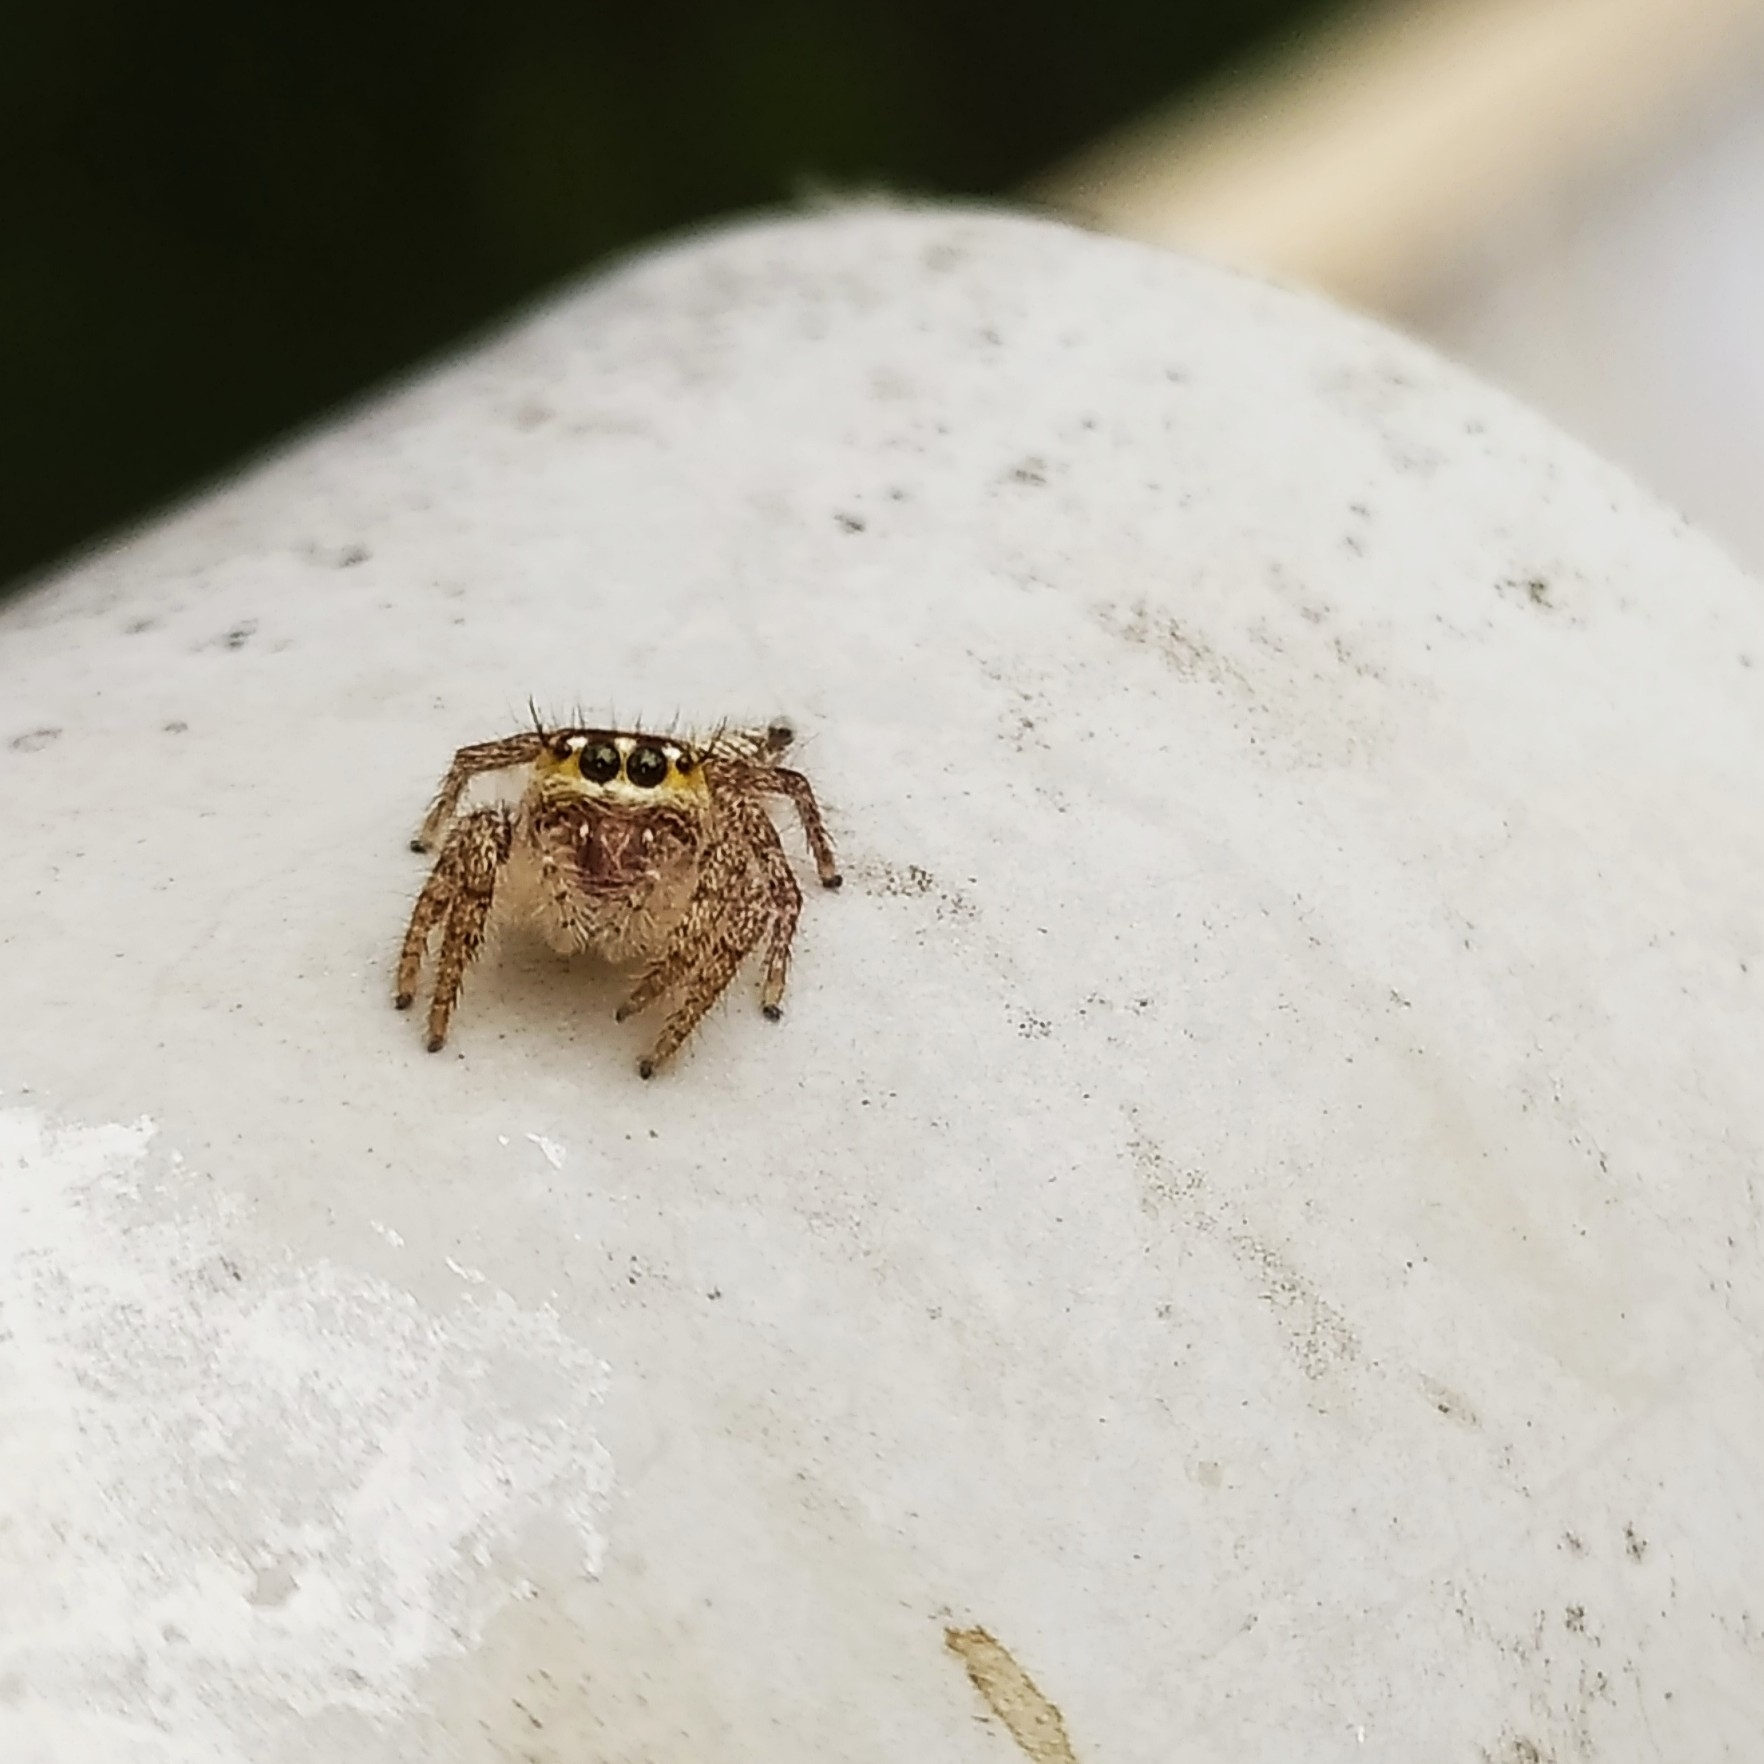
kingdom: Animalia
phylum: Arthropoda
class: Arachnida
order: Araneae
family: Salticidae
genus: Hyllus
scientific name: Hyllus semicupreus
